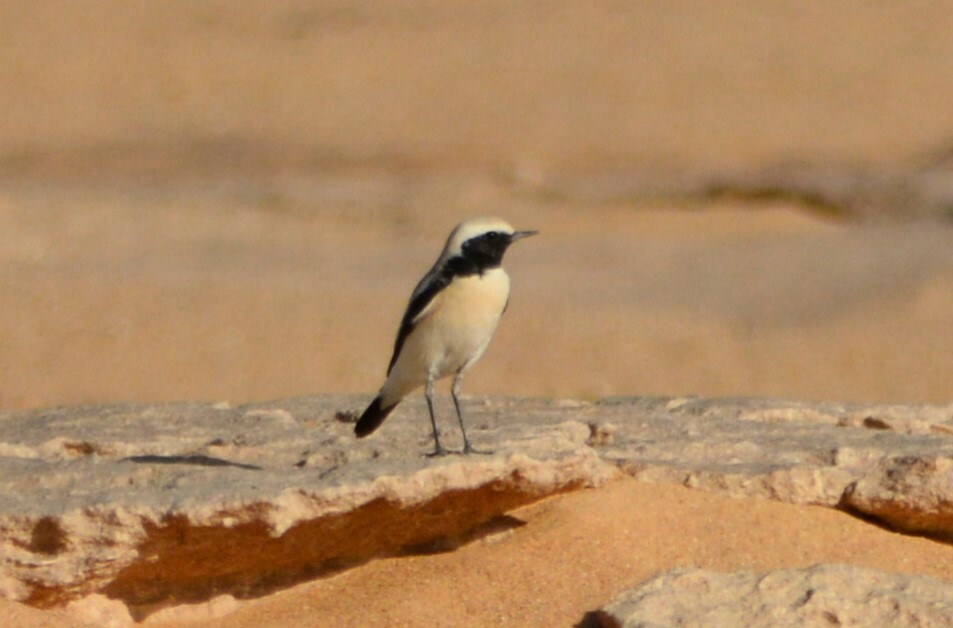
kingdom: Animalia
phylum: Chordata
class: Aves
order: Passeriformes
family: Muscicapidae
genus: Oenanthe
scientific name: Oenanthe deserti
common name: Desert wheatear
